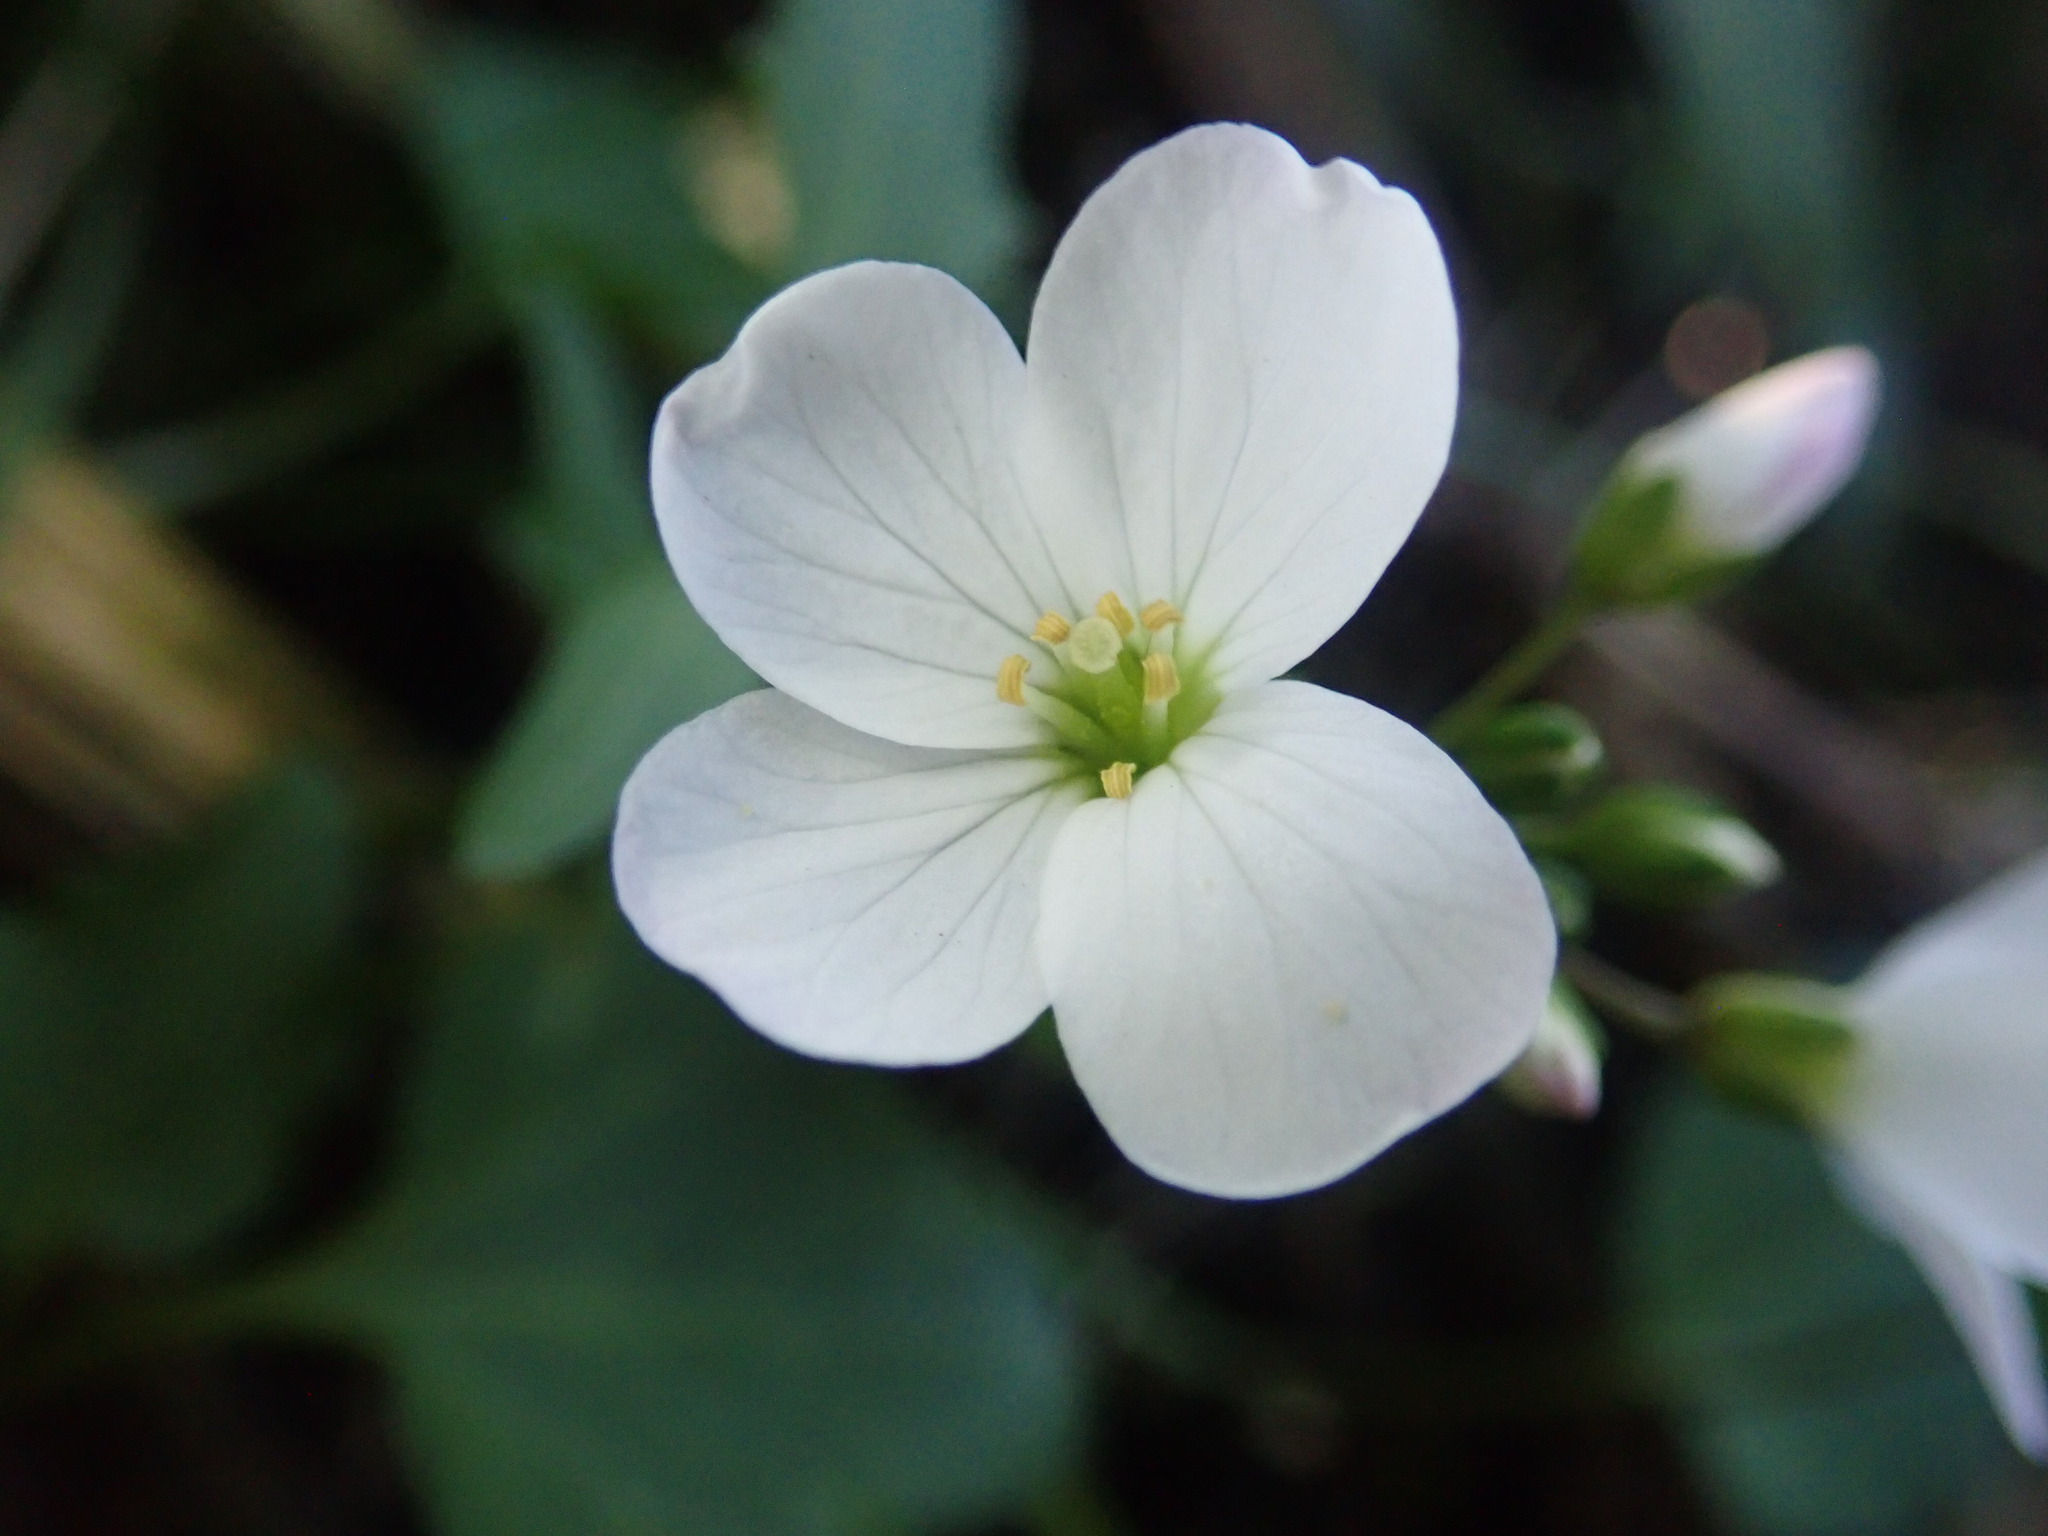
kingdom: Plantae
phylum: Tracheophyta
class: Magnoliopsida
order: Brassicales
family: Brassicaceae
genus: Cardamine
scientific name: Cardamine californica
